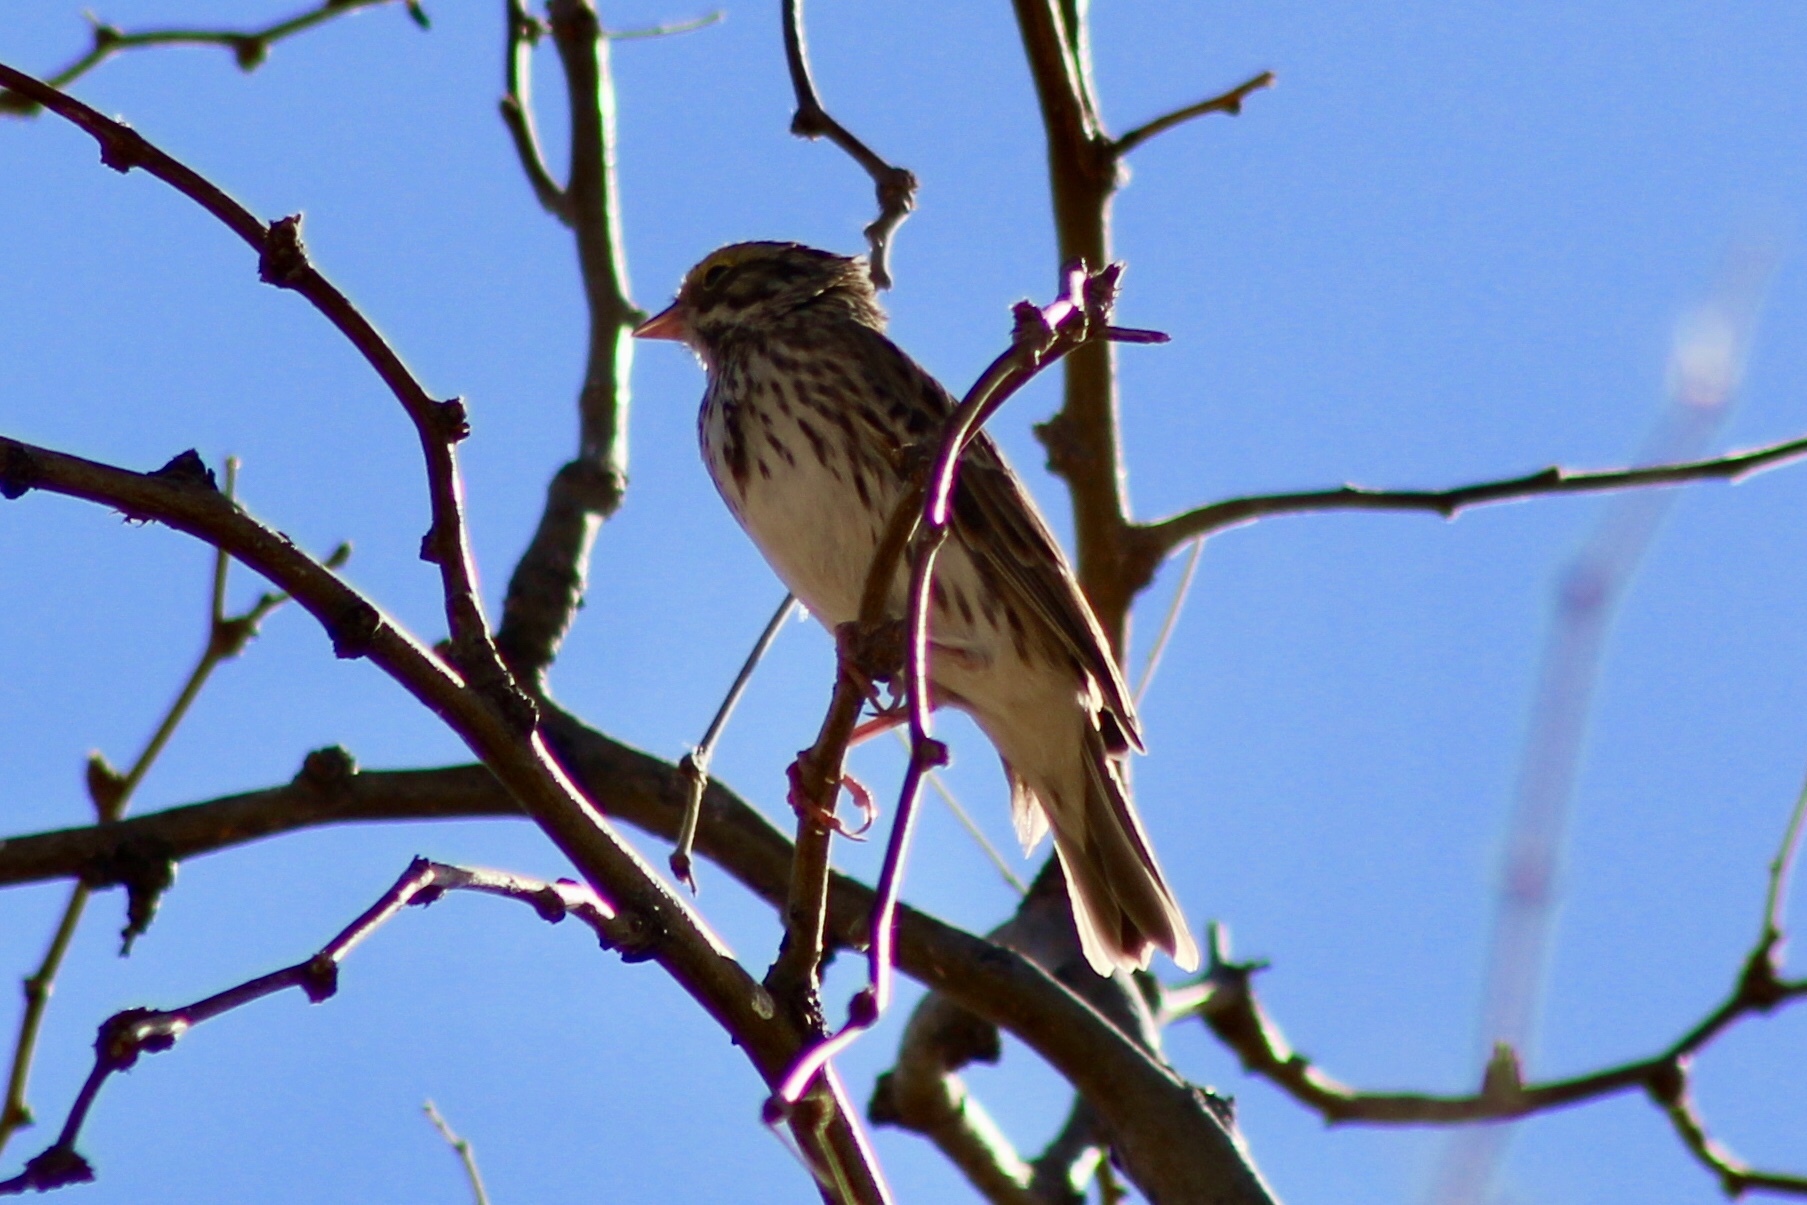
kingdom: Animalia
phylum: Chordata
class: Aves
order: Passeriformes
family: Passerellidae
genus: Passerculus
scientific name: Passerculus sandwichensis
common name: Savannah sparrow
